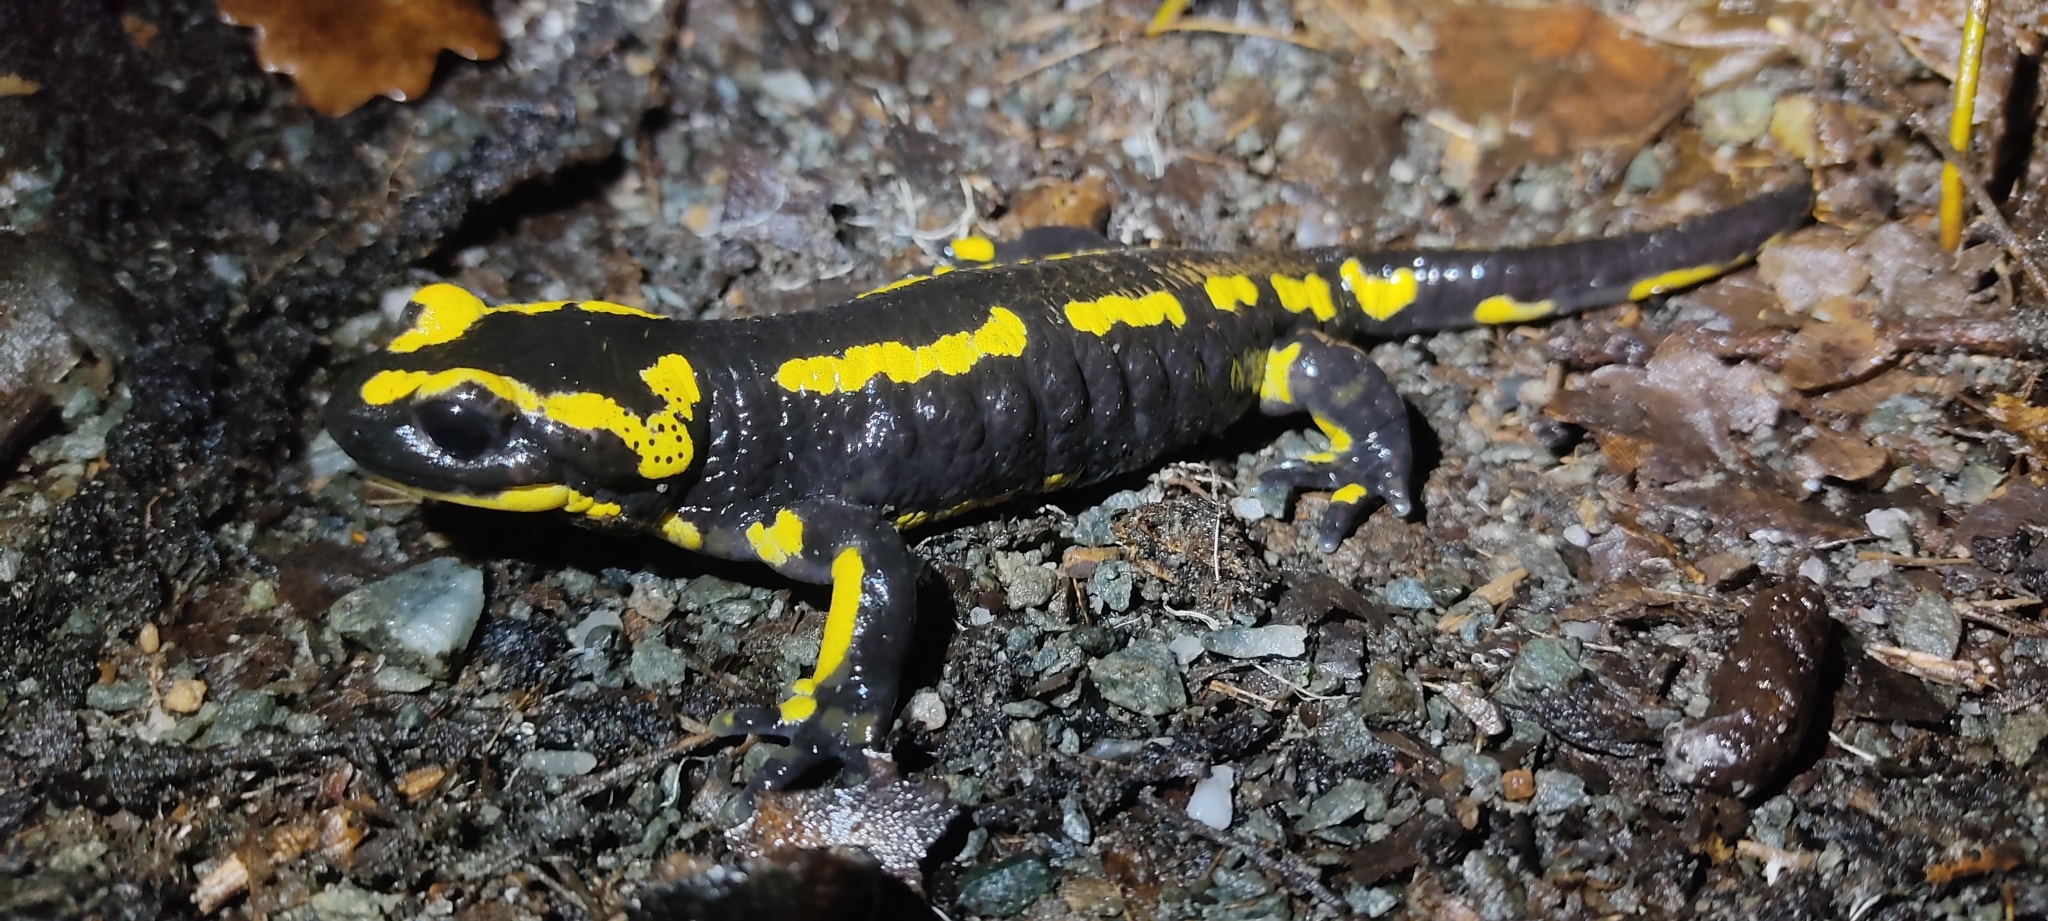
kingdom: Animalia
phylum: Chordata
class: Amphibia
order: Caudata
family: Salamandridae
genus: Salamandra
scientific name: Salamandra salamandra
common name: Fire salamander
